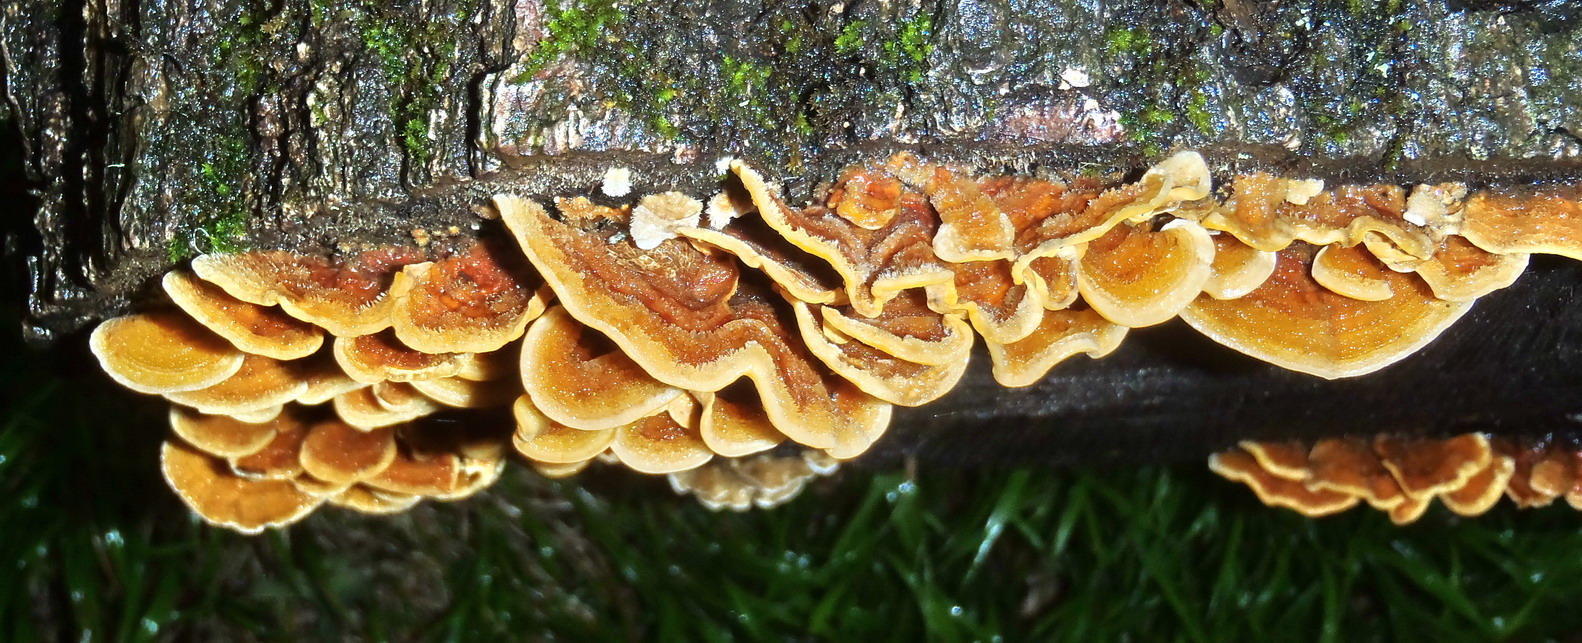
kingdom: Fungi
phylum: Basidiomycota
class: Agaricomycetes
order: Russulales
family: Stereaceae
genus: Stereum
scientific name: Stereum hirsutum
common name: Hairy curtain crust
